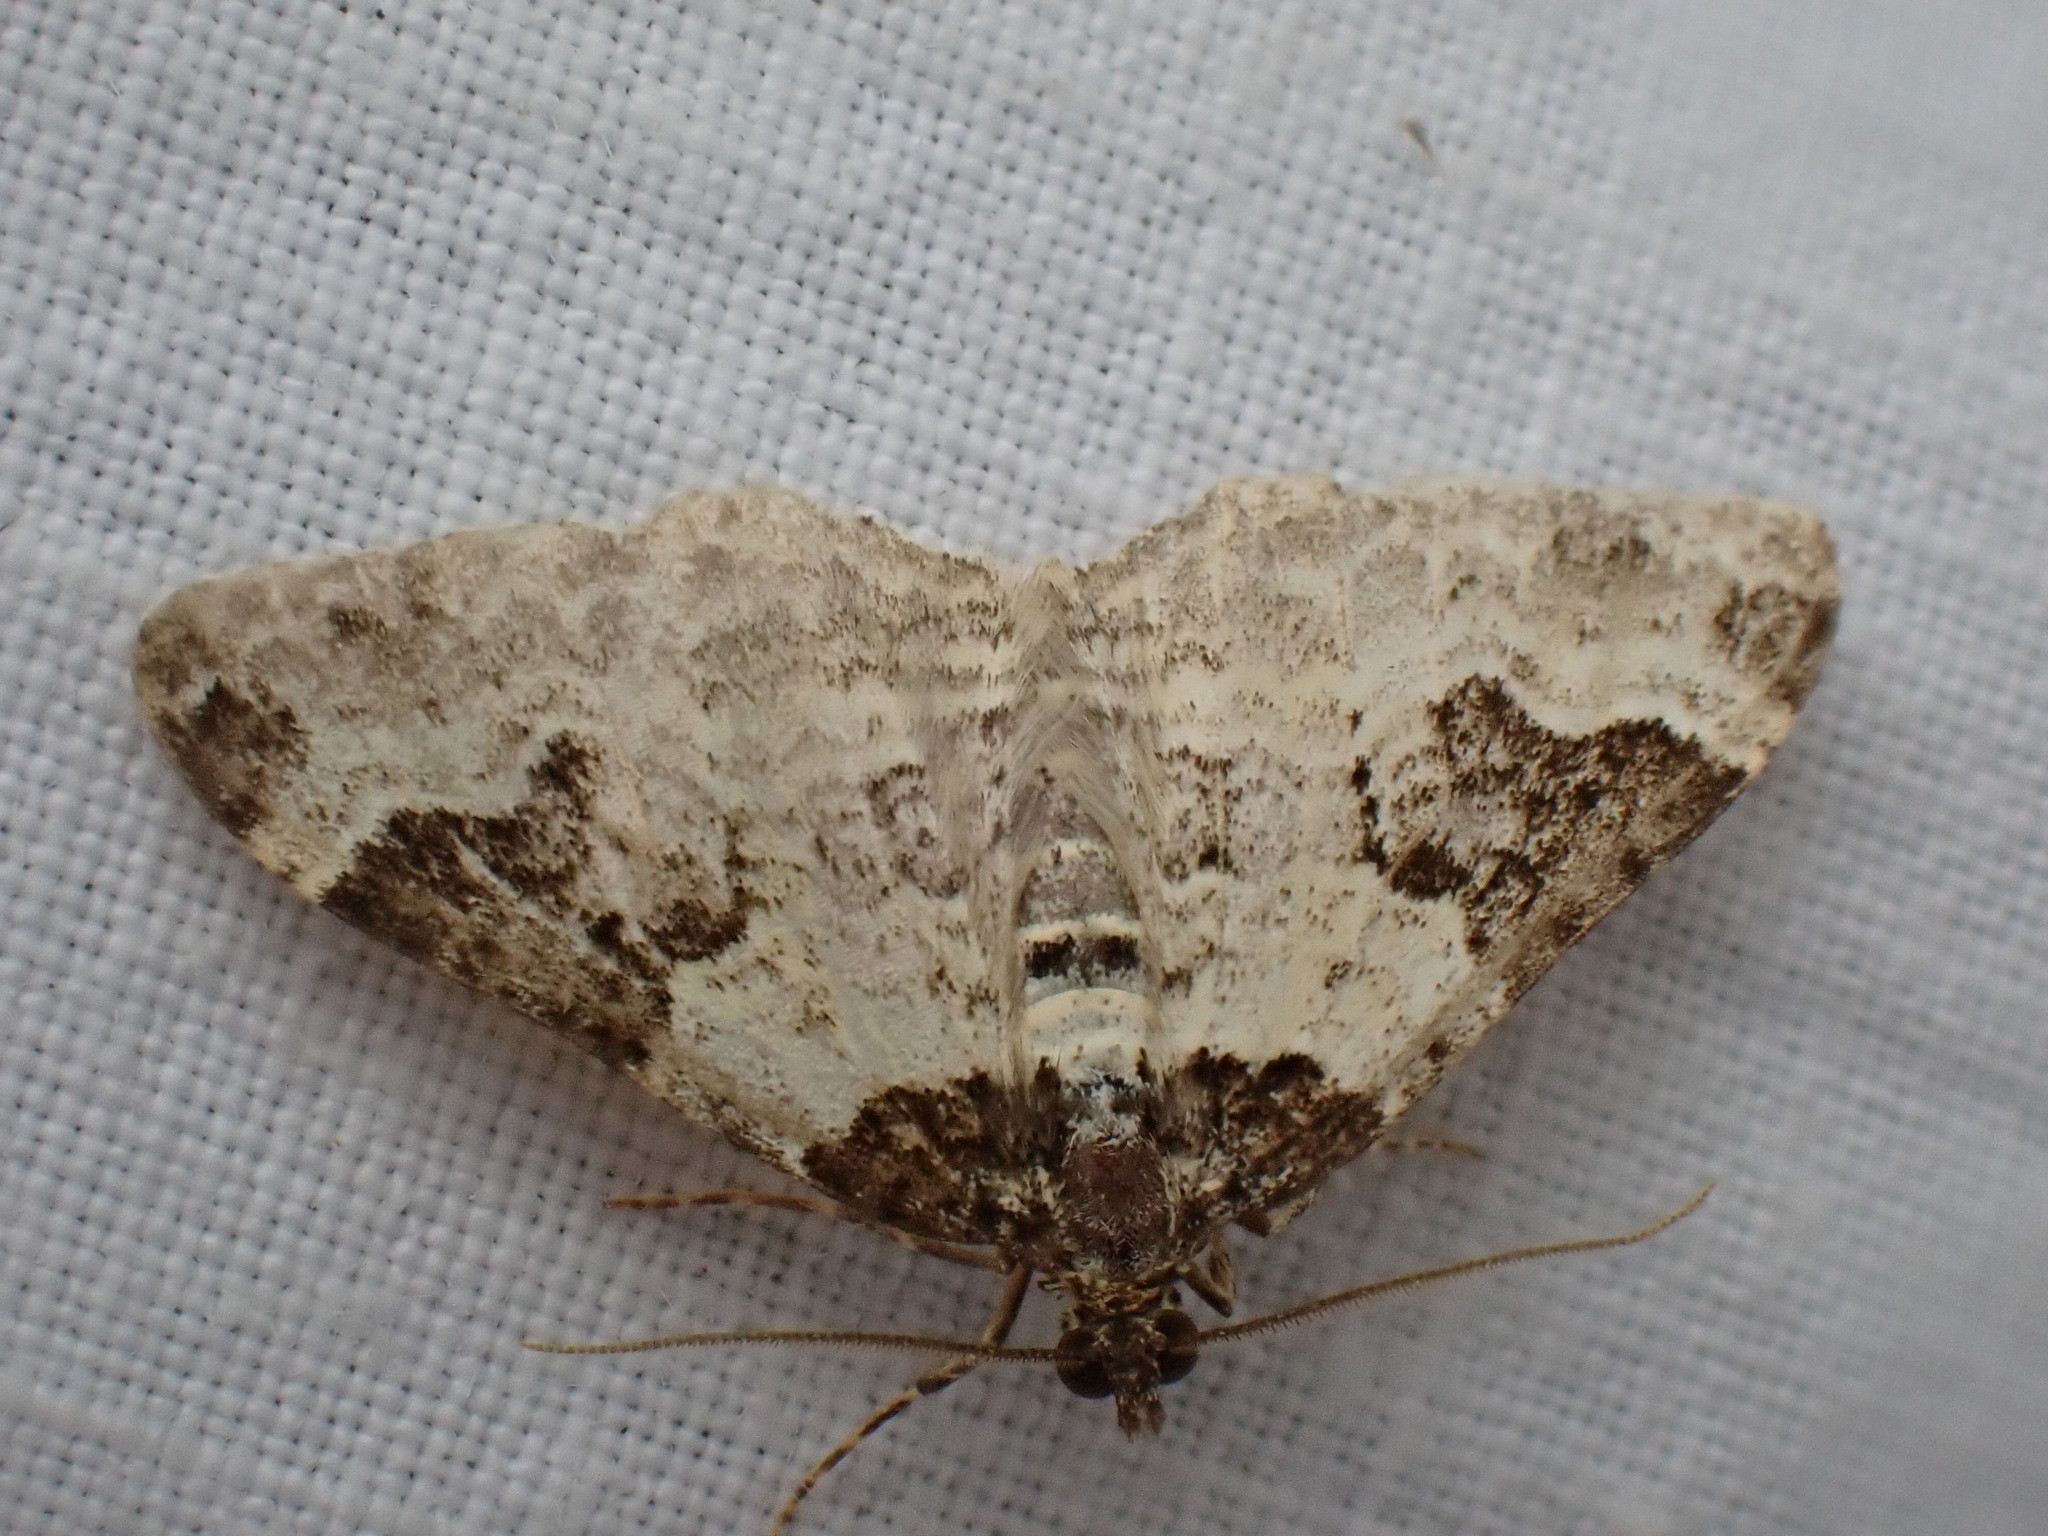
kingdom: Animalia
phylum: Arthropoda
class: Insecta
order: Lepidoptera
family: Geometridae
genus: Xanthorhoe
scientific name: Xanthorhoe fluctuata
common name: Garden carpet
